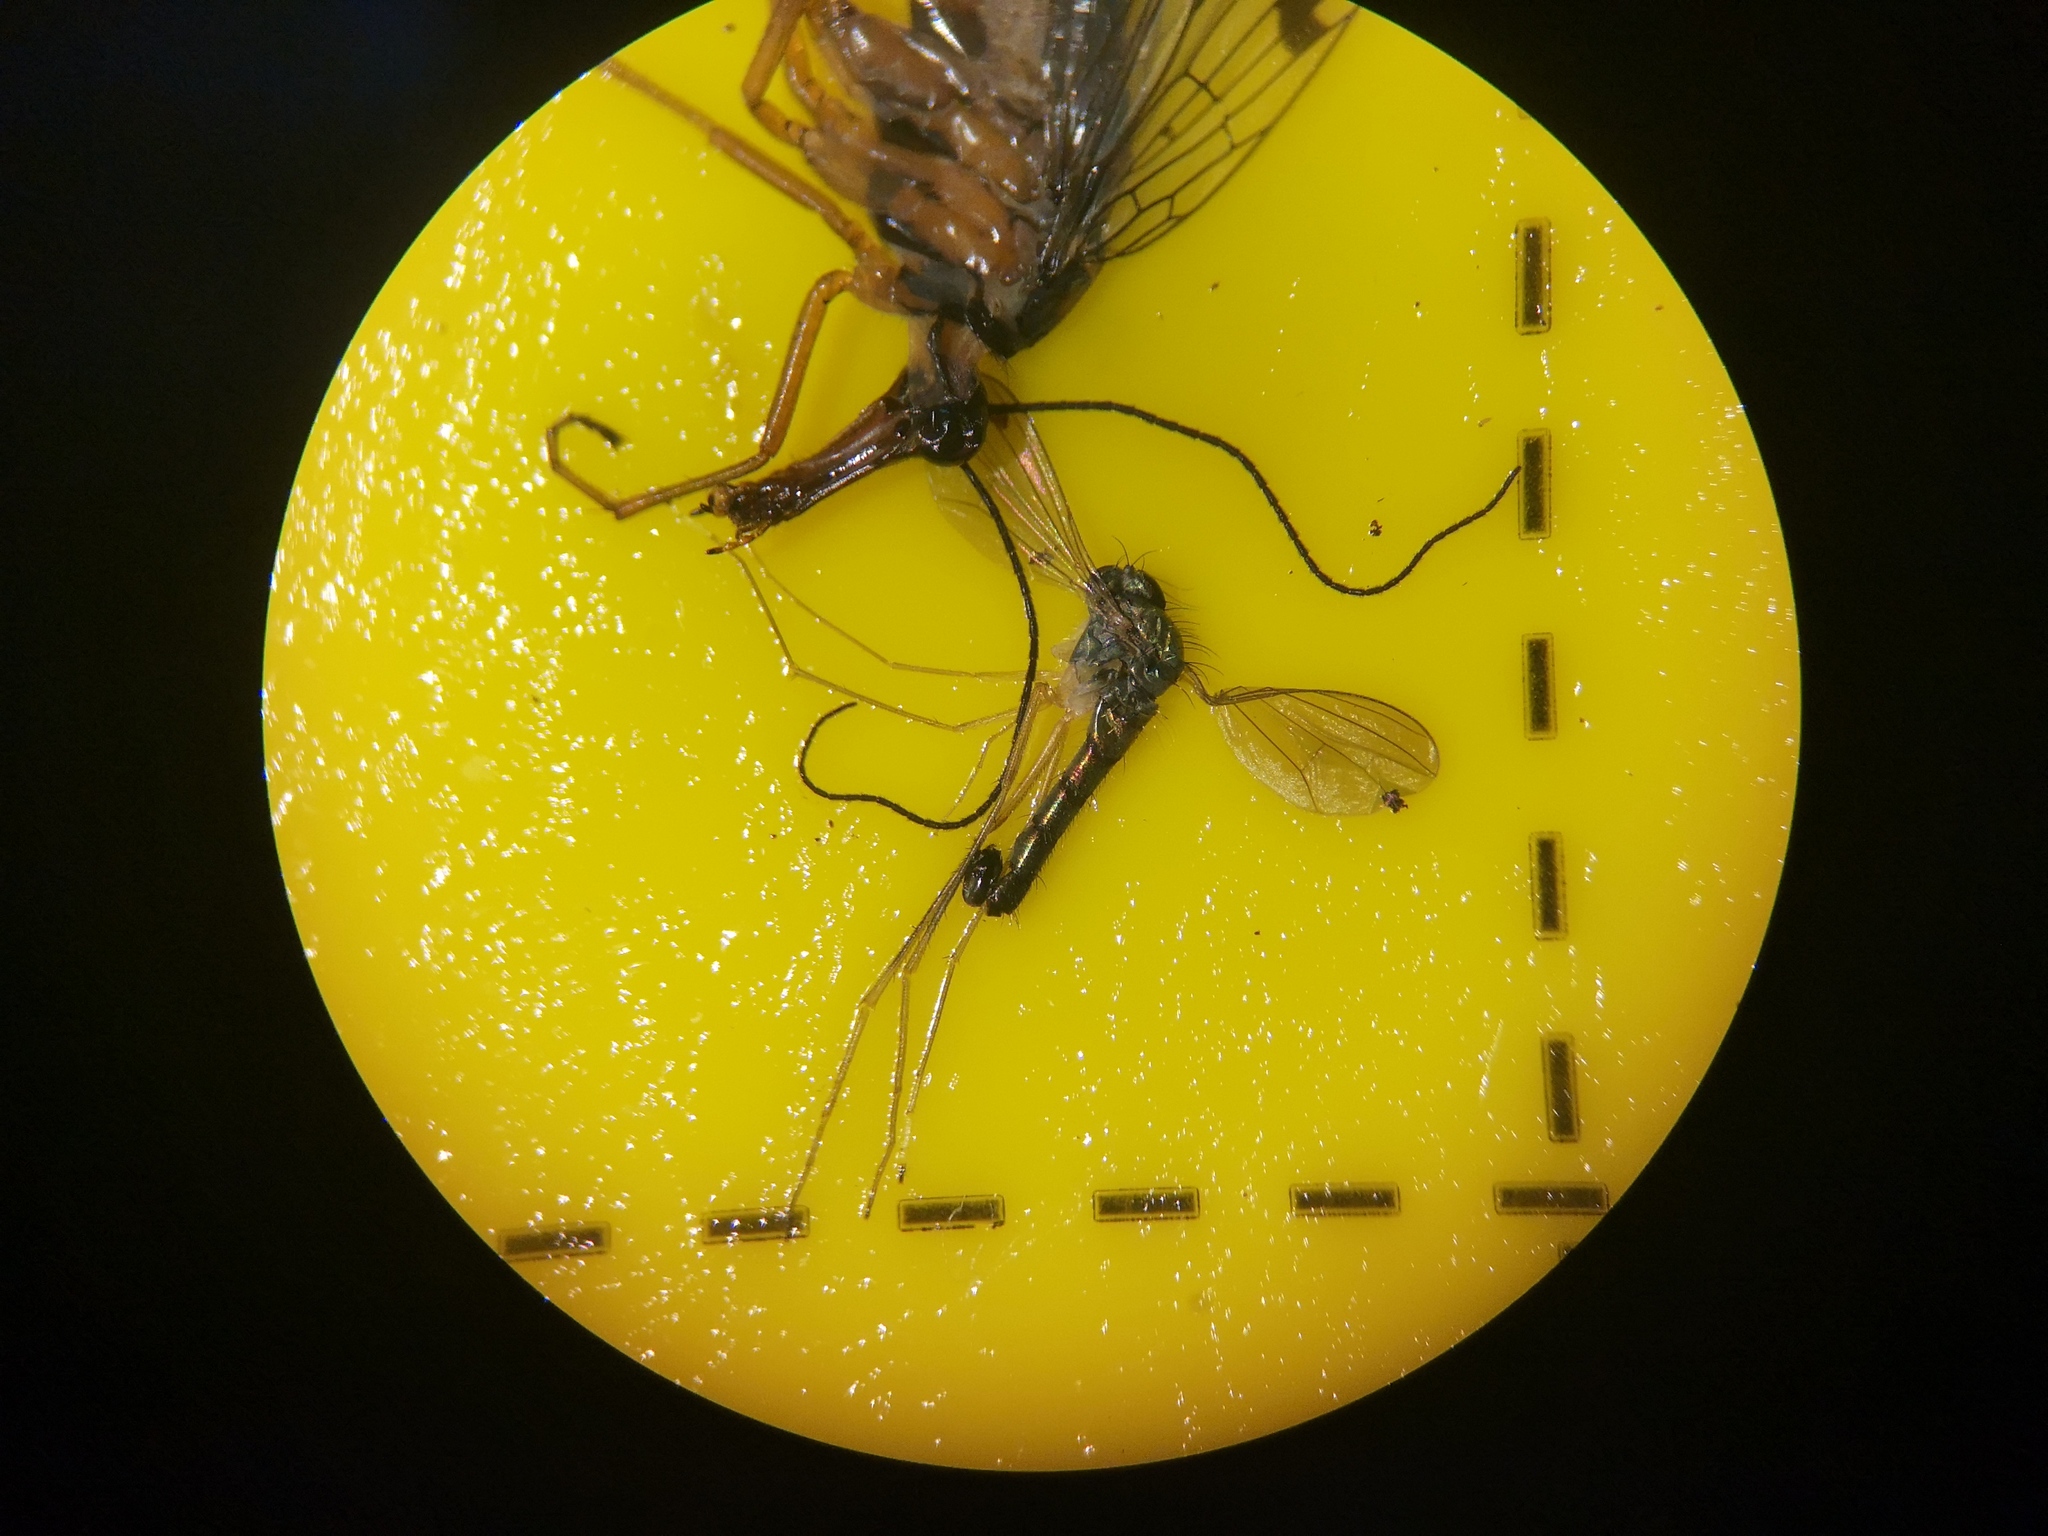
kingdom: Animalia
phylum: Arthropoda
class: Insecta
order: Diptera
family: Dolichopodidae
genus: Sciapus
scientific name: Sciapus platypterus
